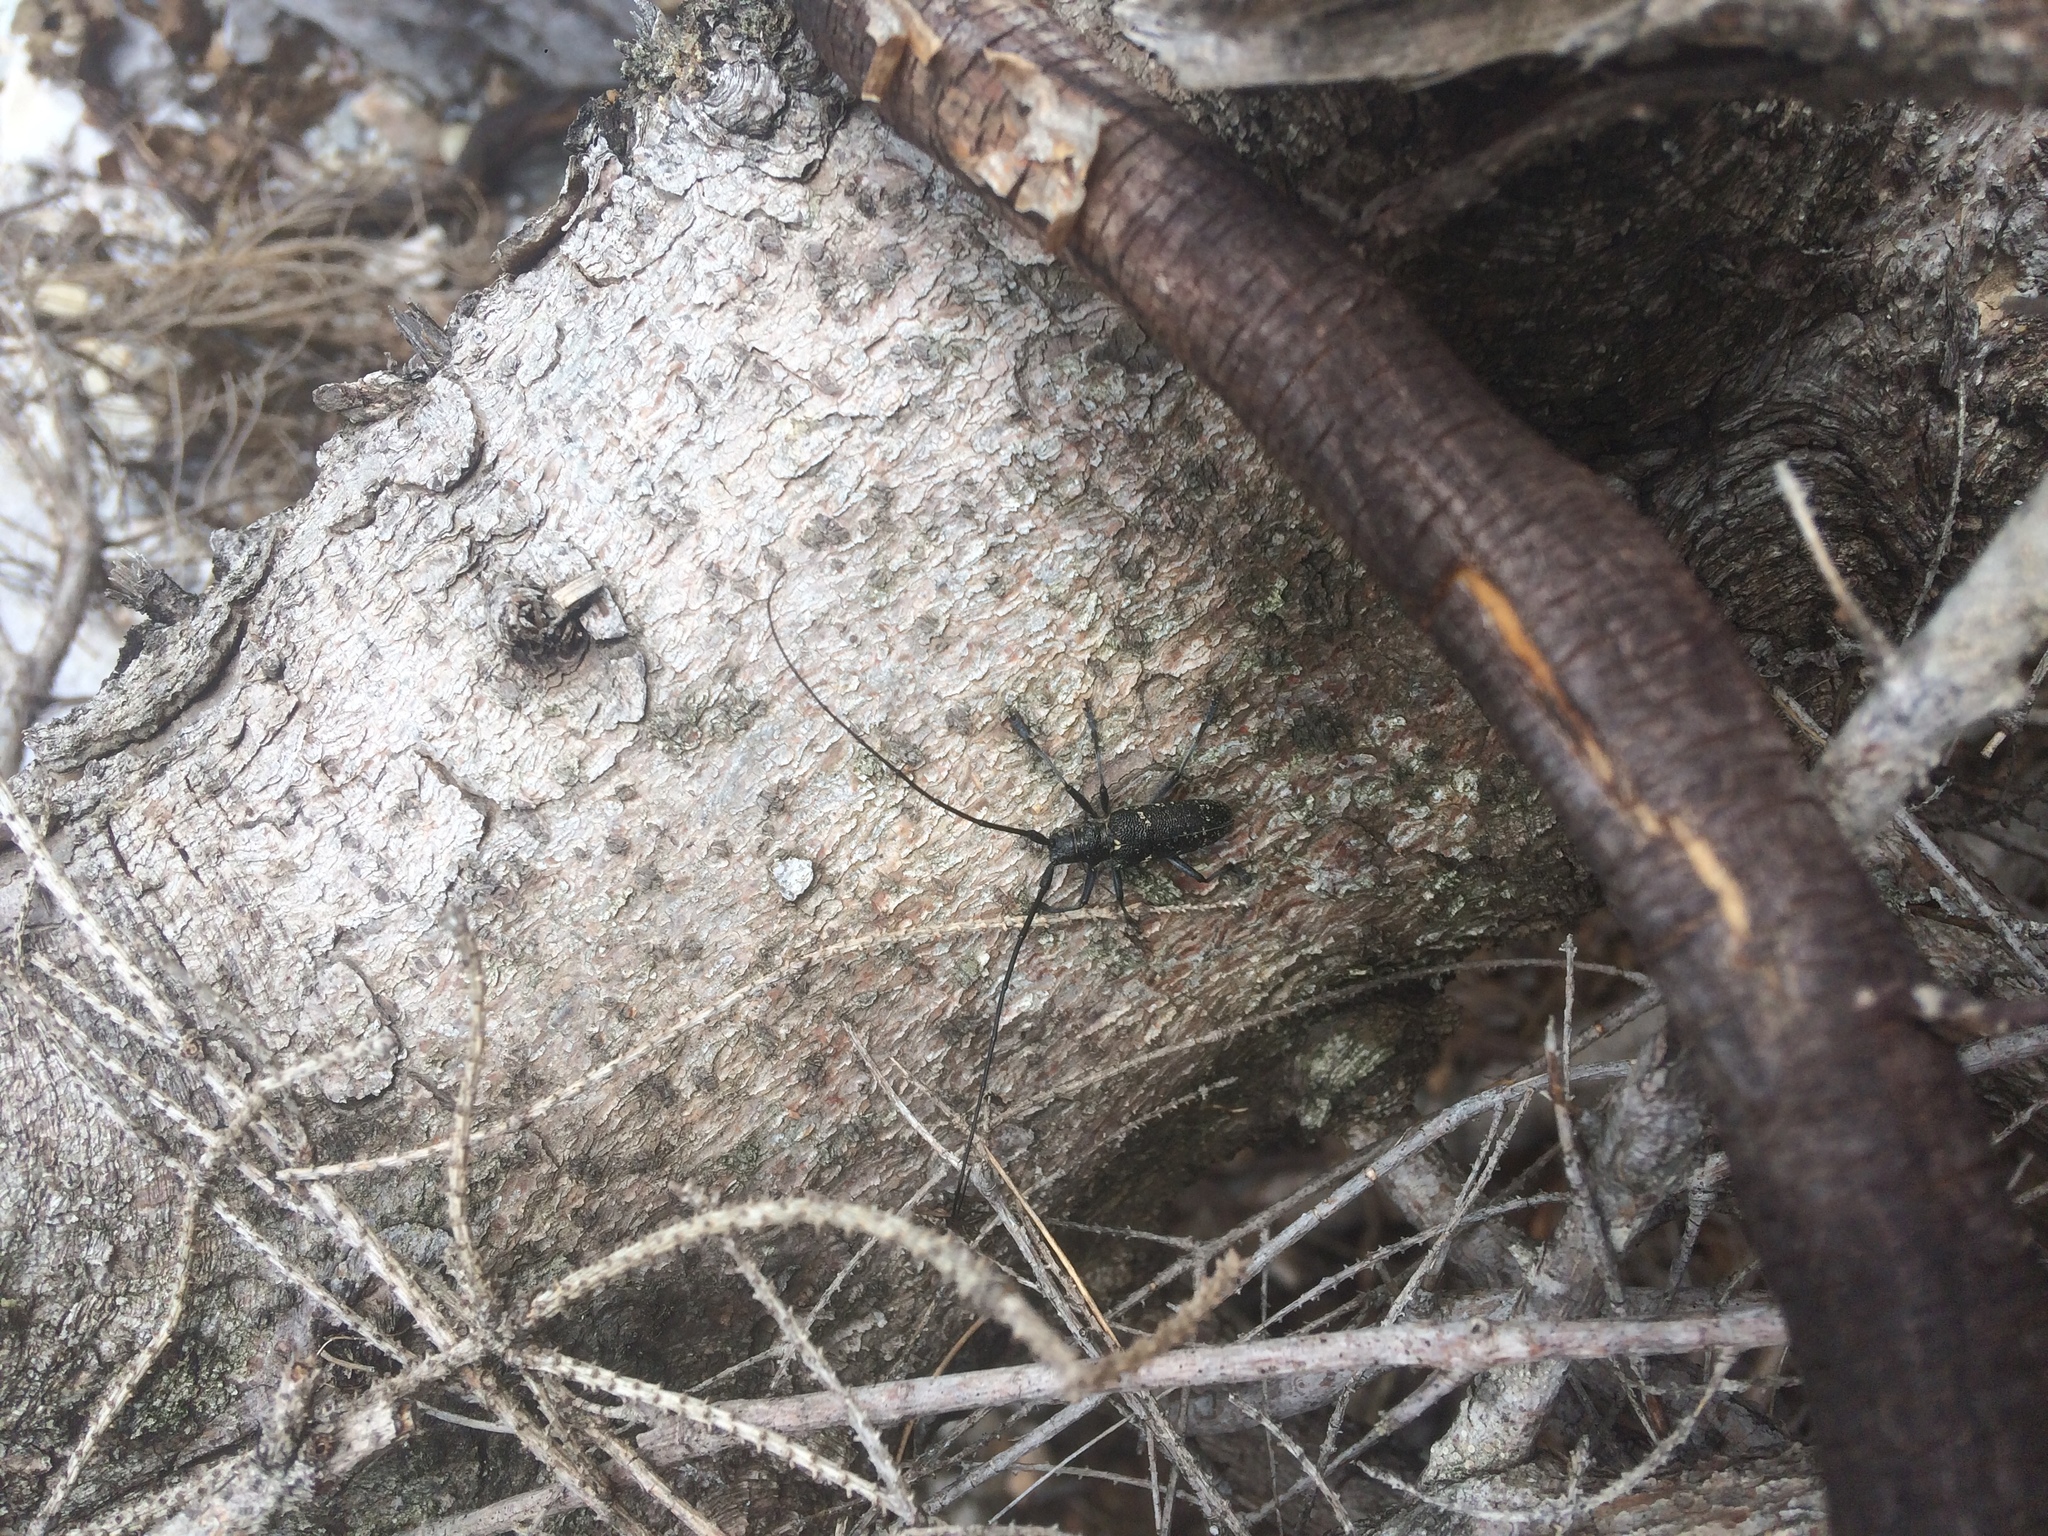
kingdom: Animalia
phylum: Arthropoda
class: Insecta
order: Coleoptera
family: Cerambycidae
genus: Monochamus
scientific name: Monochamus sutor
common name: Pine sawyer
